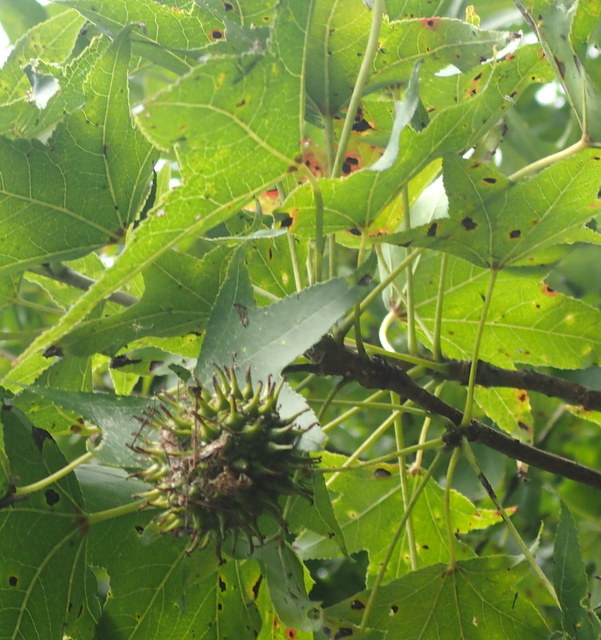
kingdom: Plantae
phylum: Tracheophyta
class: Magnoliopsida
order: Saxifragales
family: Altingiaceae
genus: Liquidambar
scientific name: Liquidambar styraciflua
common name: Sweet gum
